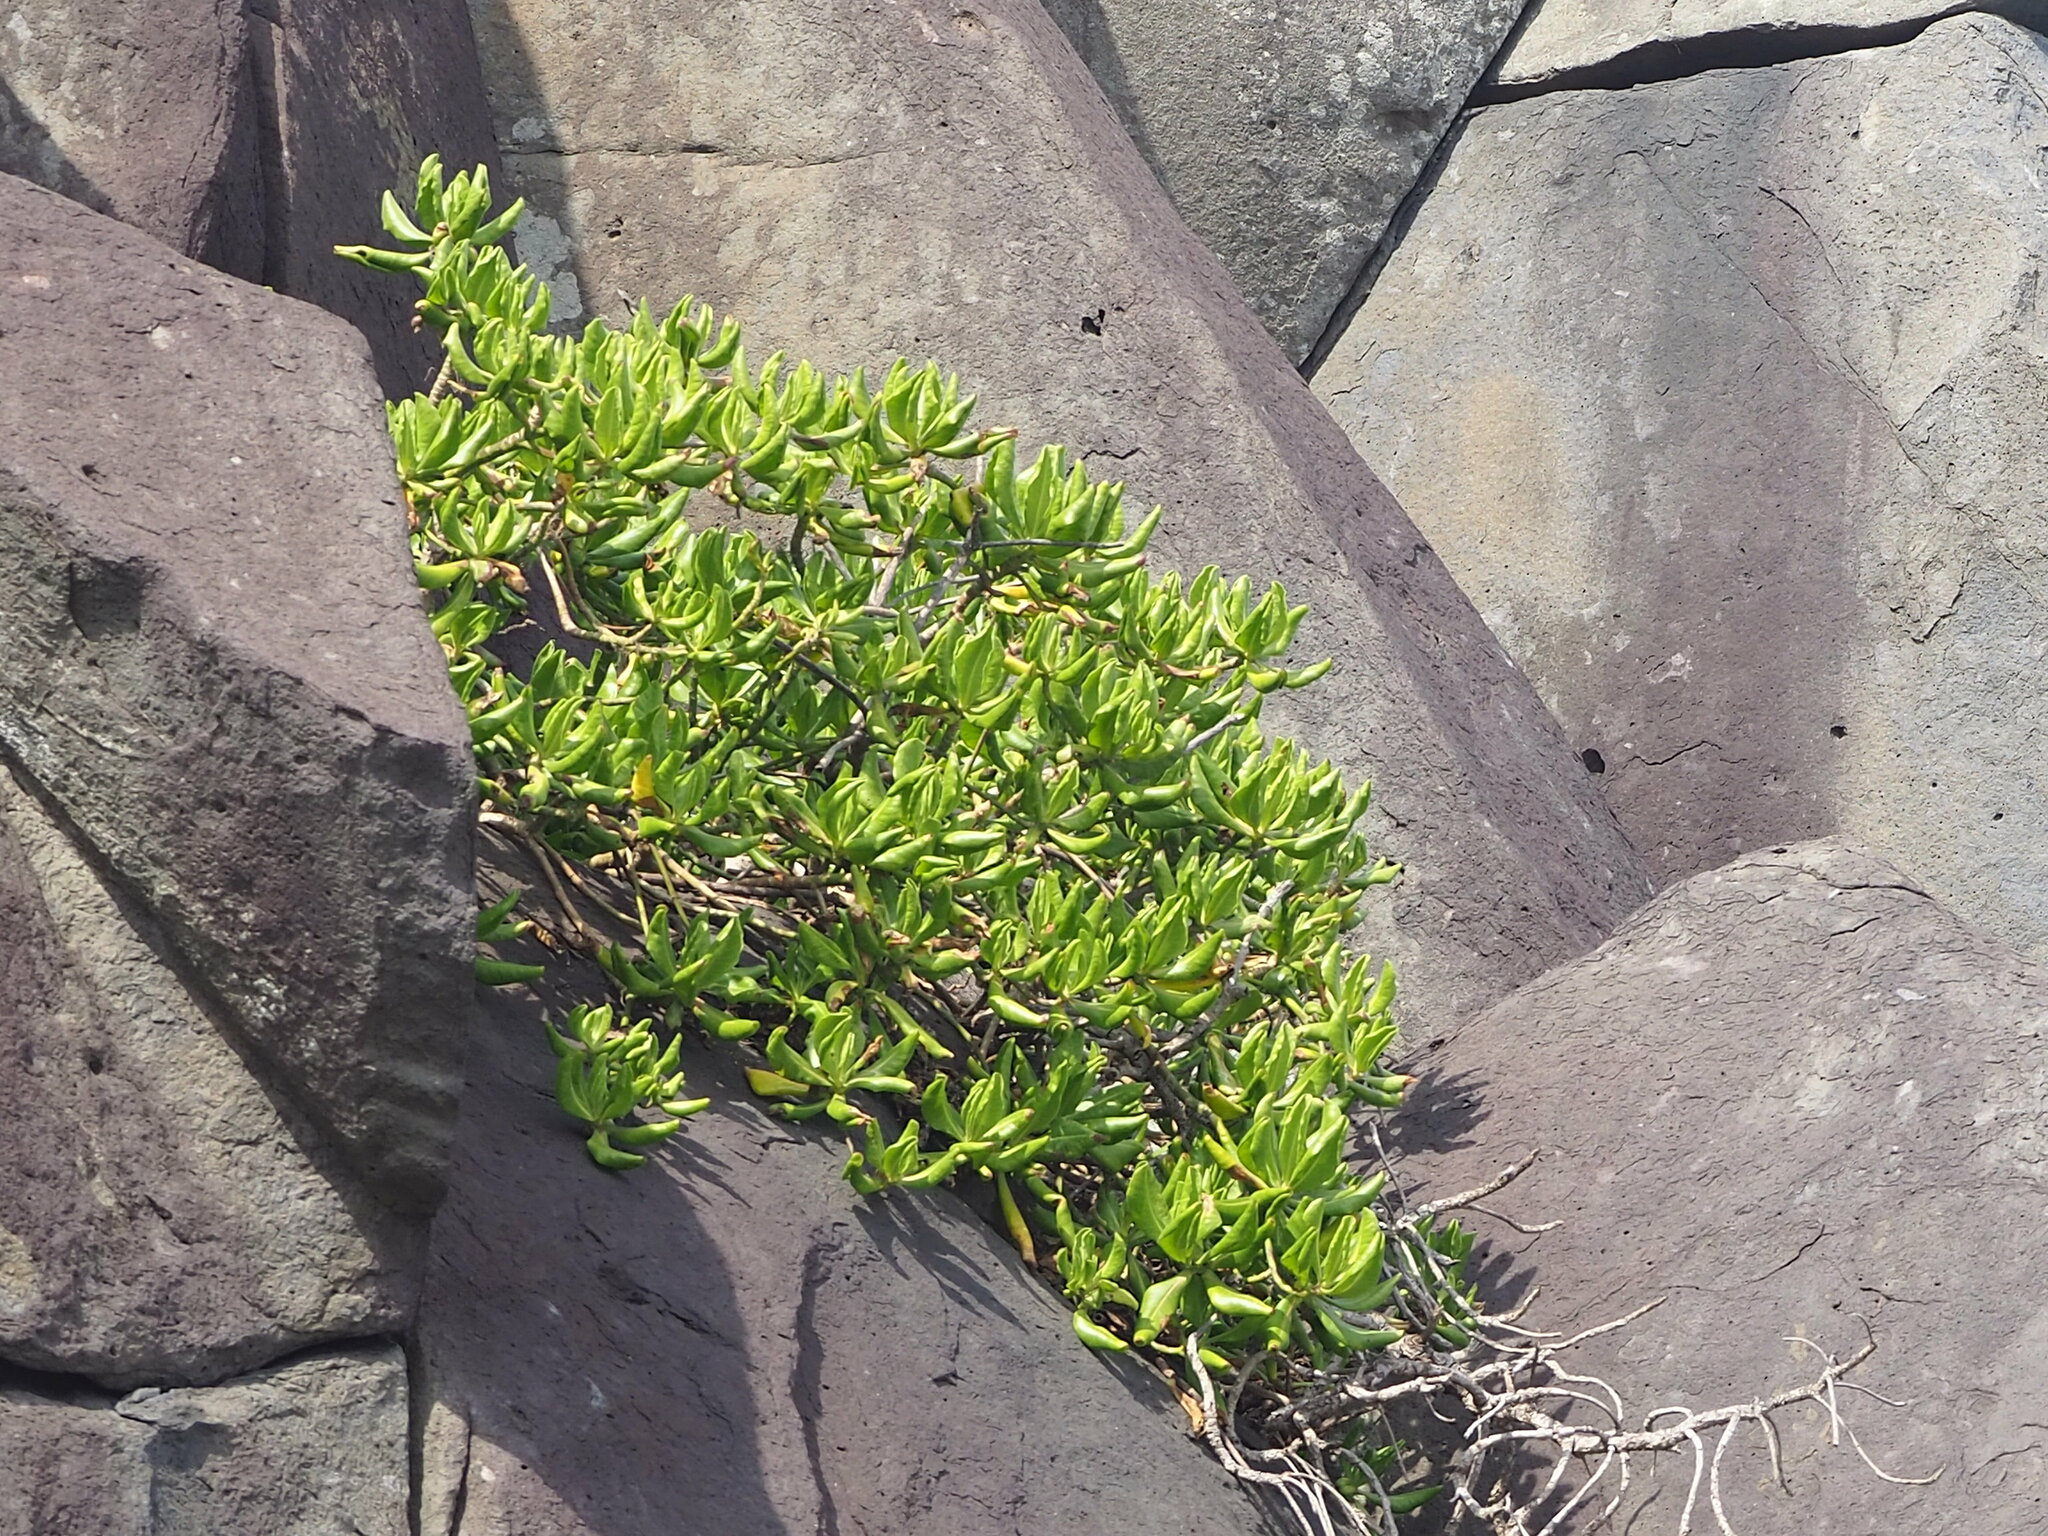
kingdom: Plantae
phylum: Tracheophyta
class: Magnoliopsida
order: Asterales
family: Goodeniaceae
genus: Scaevola
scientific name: Scaevola taccada
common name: Sea lettucetree
